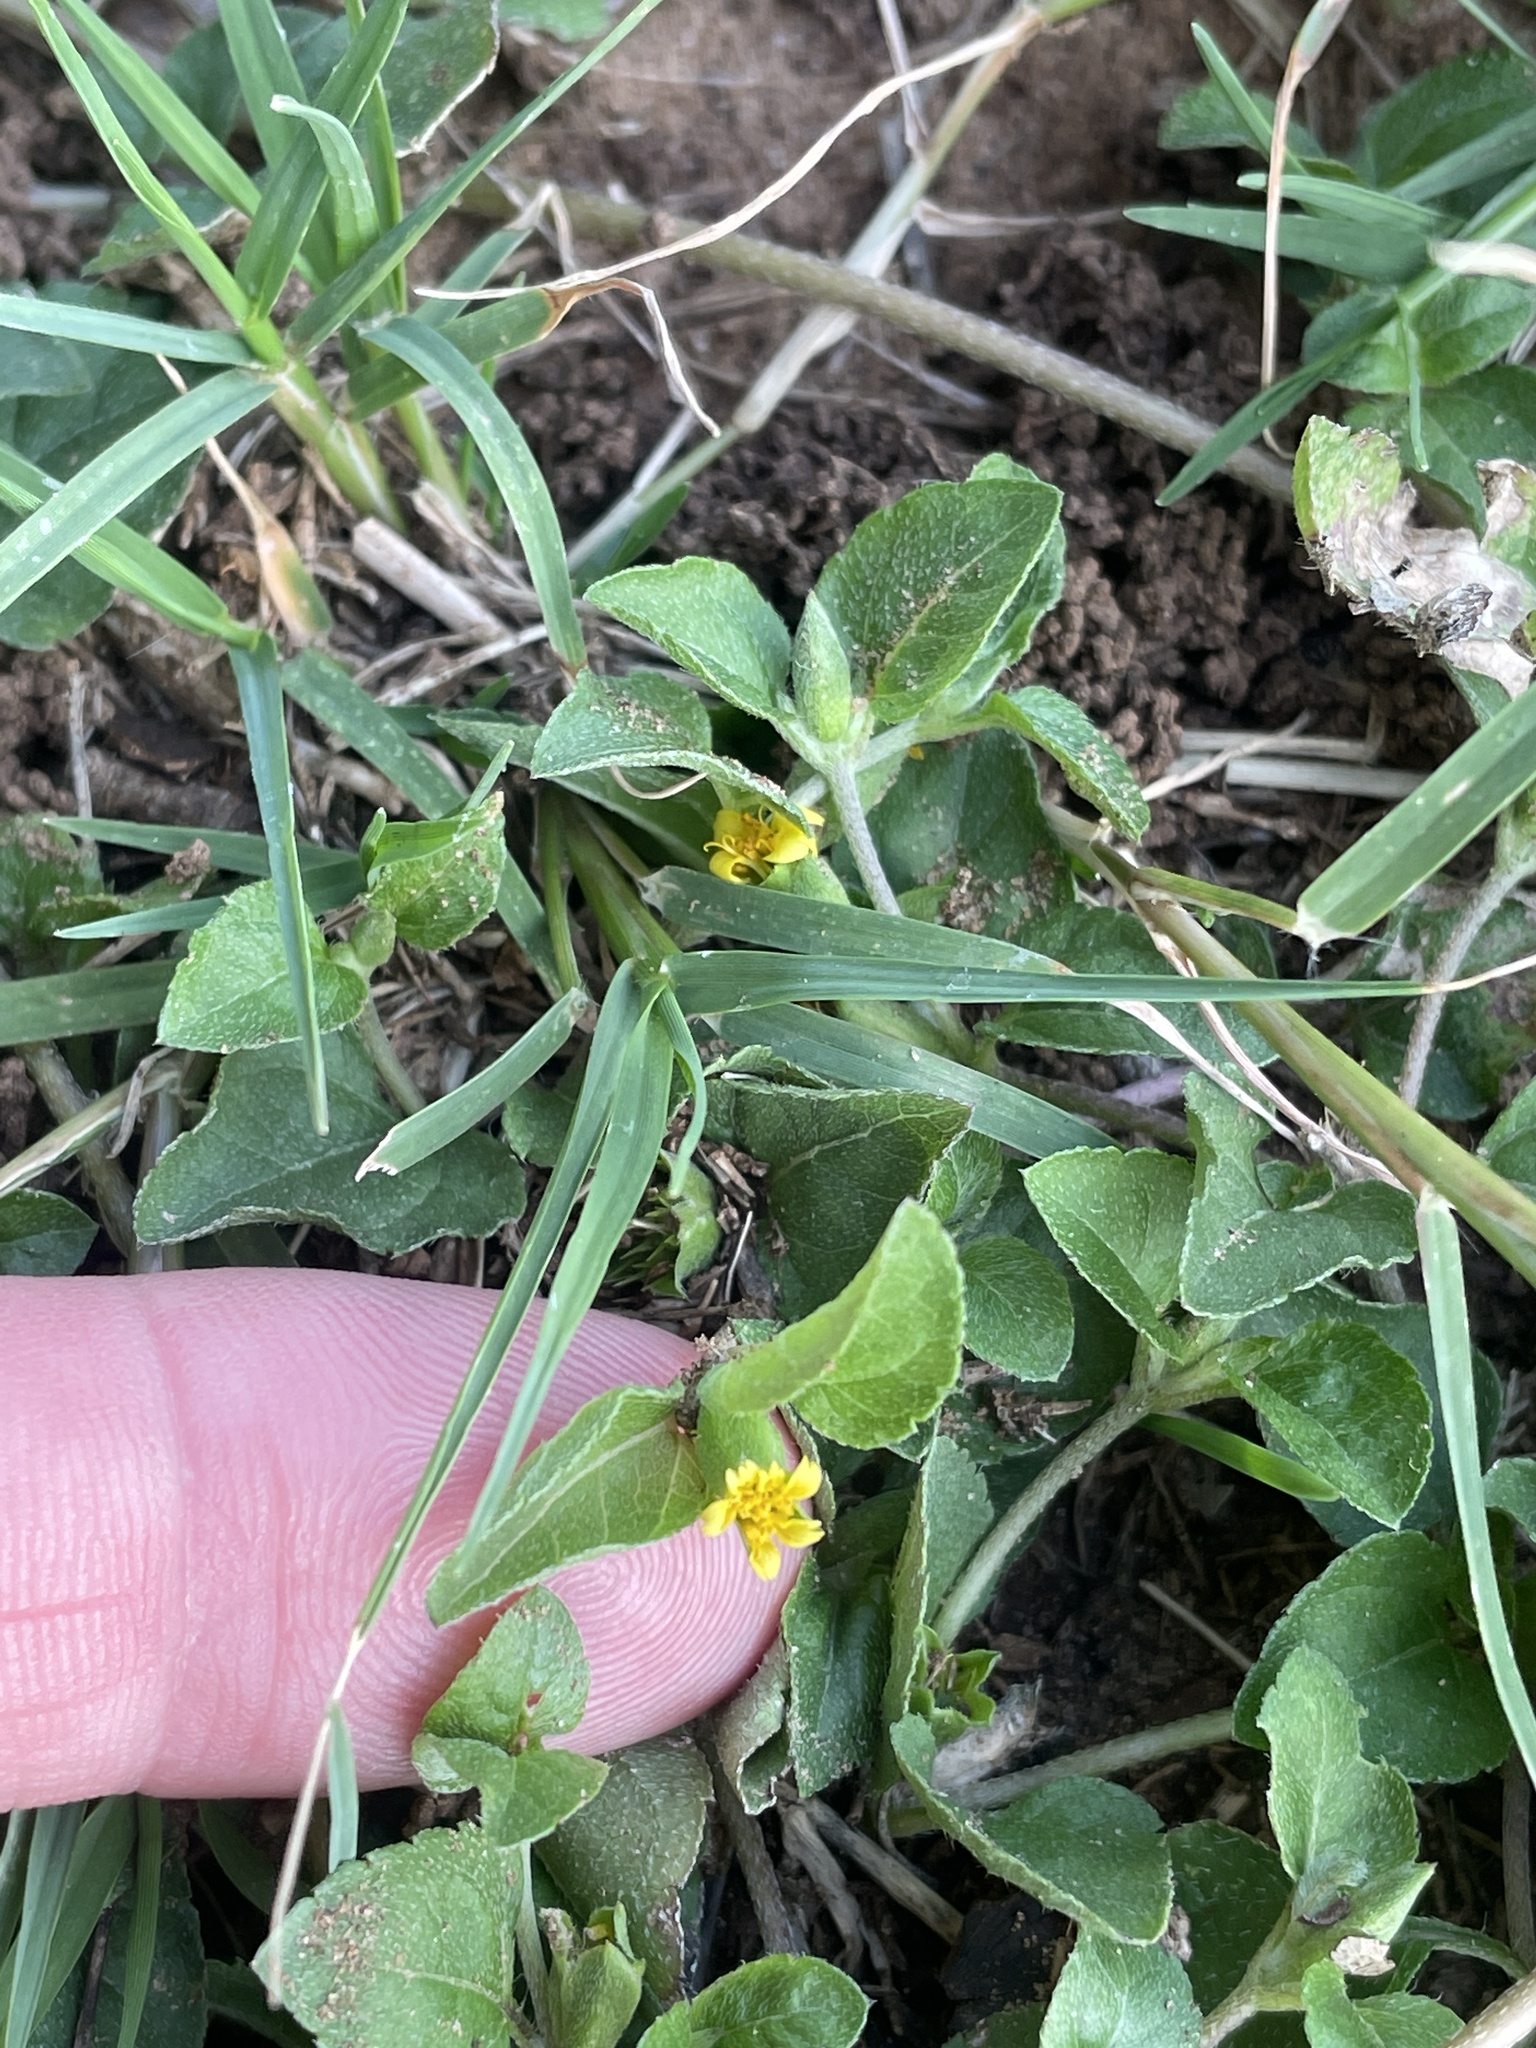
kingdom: Plantae
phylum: Tracheophyta
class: Magnoliopsida
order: Asterales
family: Asteraceae
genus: Calyptocarpus
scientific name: Calyptocarpus vialis
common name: Straggler daisy
